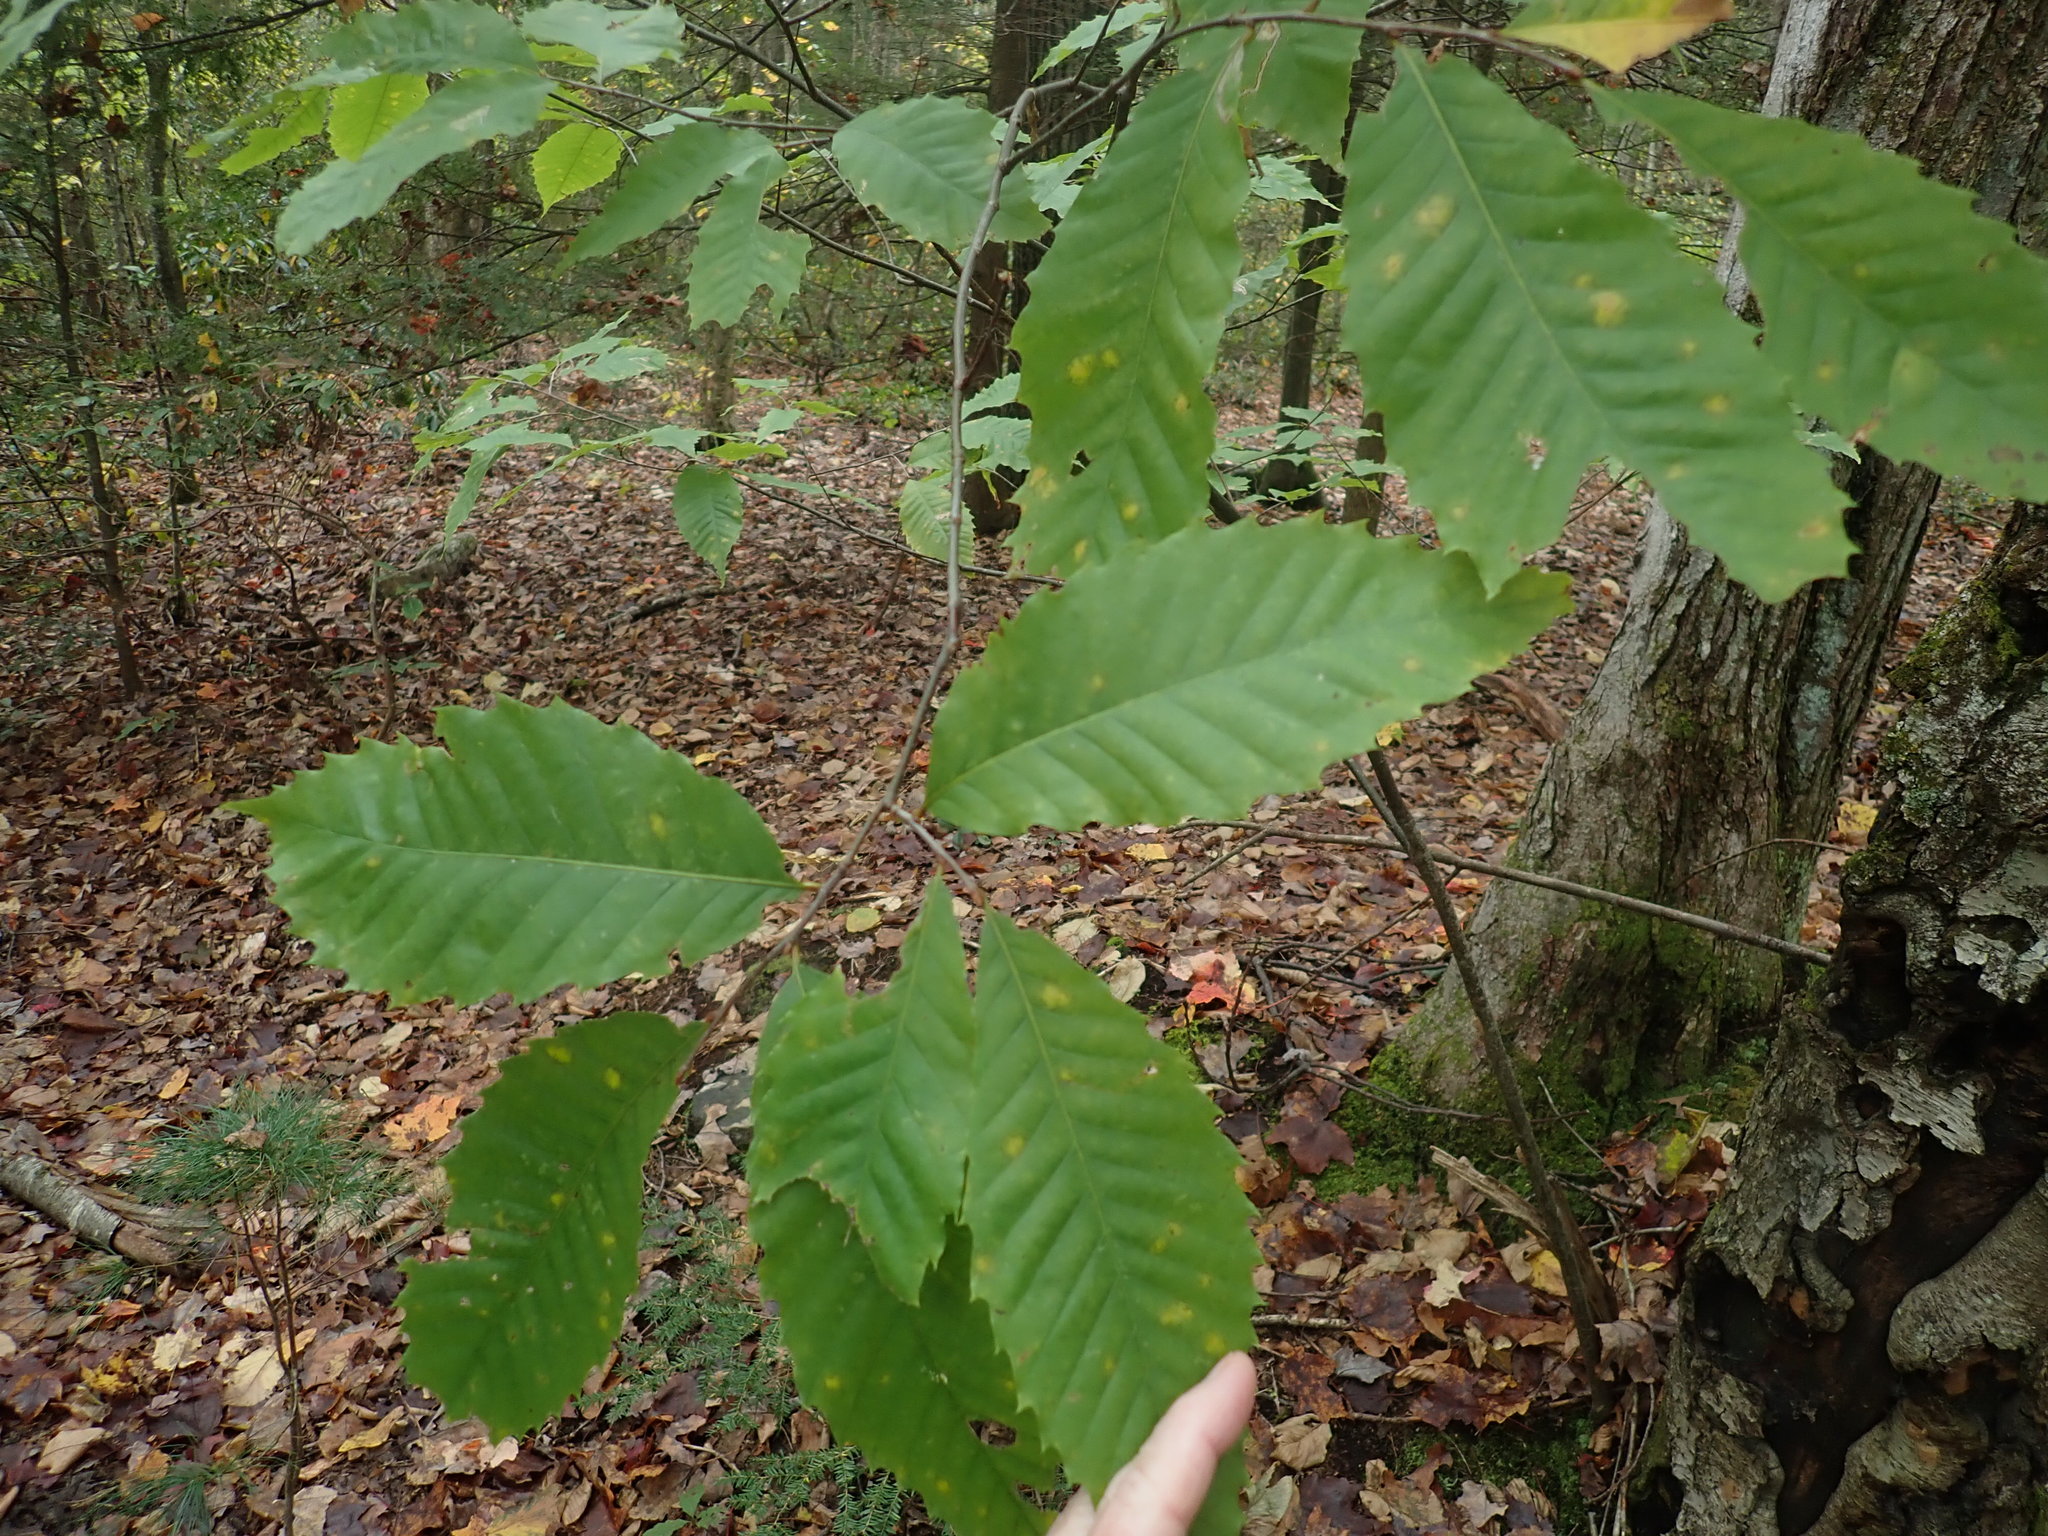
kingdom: Plantae
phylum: Tracheophyta
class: Magnoliopsida
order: Fagales
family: Fagaceae
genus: Castanea
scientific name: Castanea dentata
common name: American chestnut
